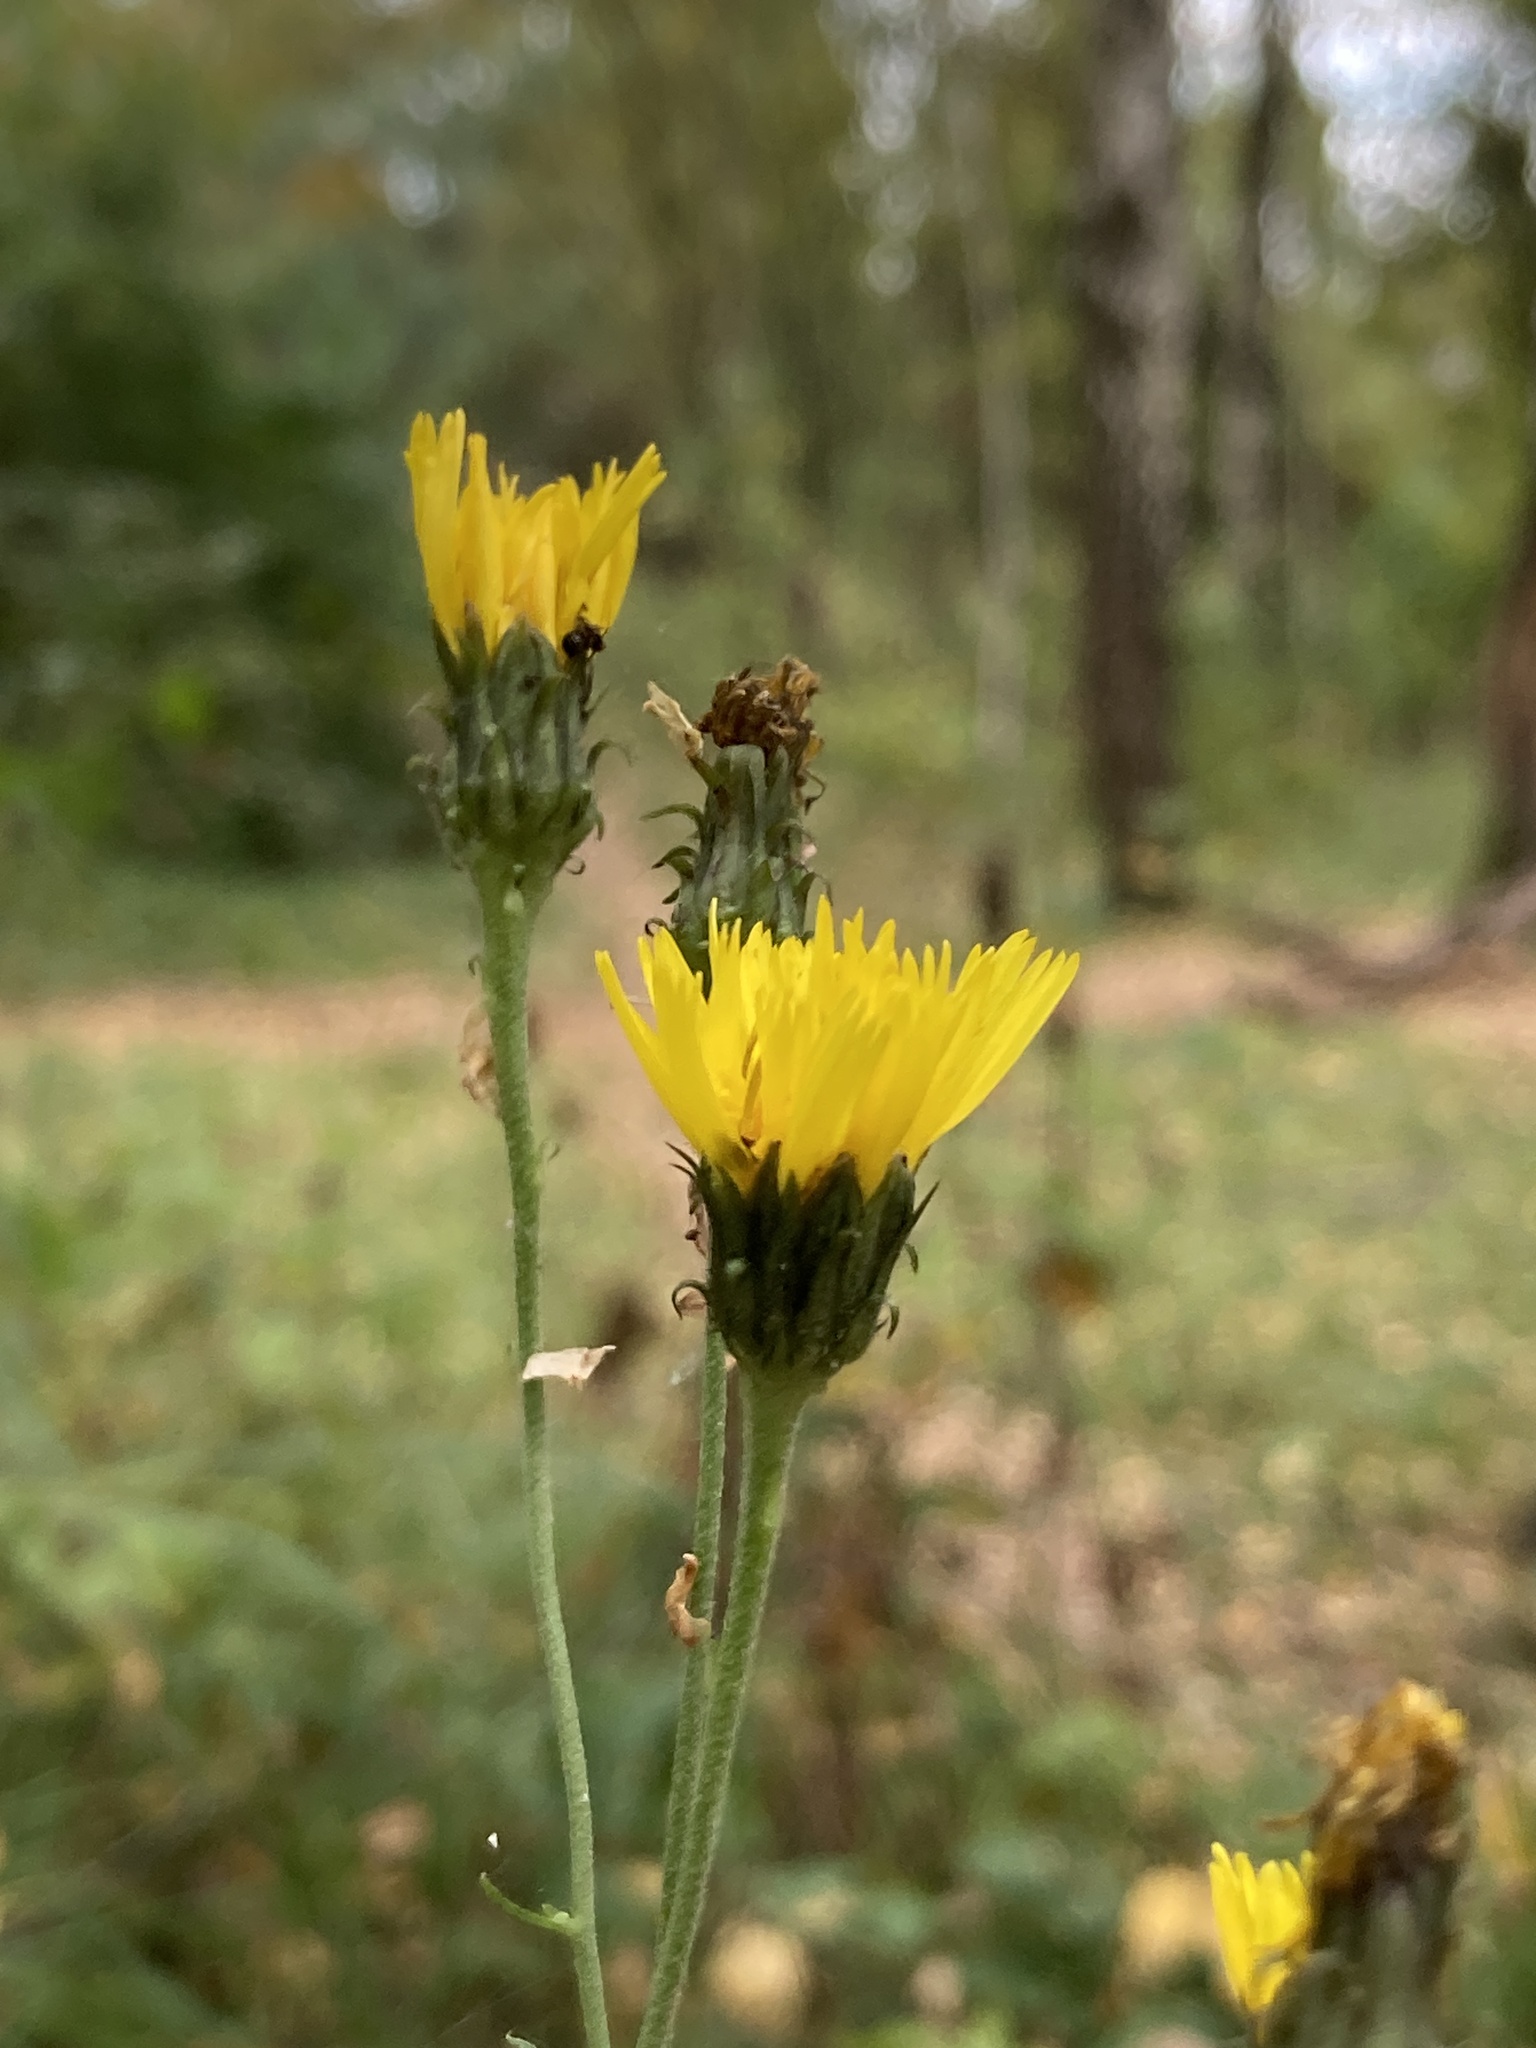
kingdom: Plantae
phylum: Tracheophyta
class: Magnoliopsida
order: Asterales
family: Asteraceae
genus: Hieracium
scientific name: Hieracium umbellatum
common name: Northern hawkweed
